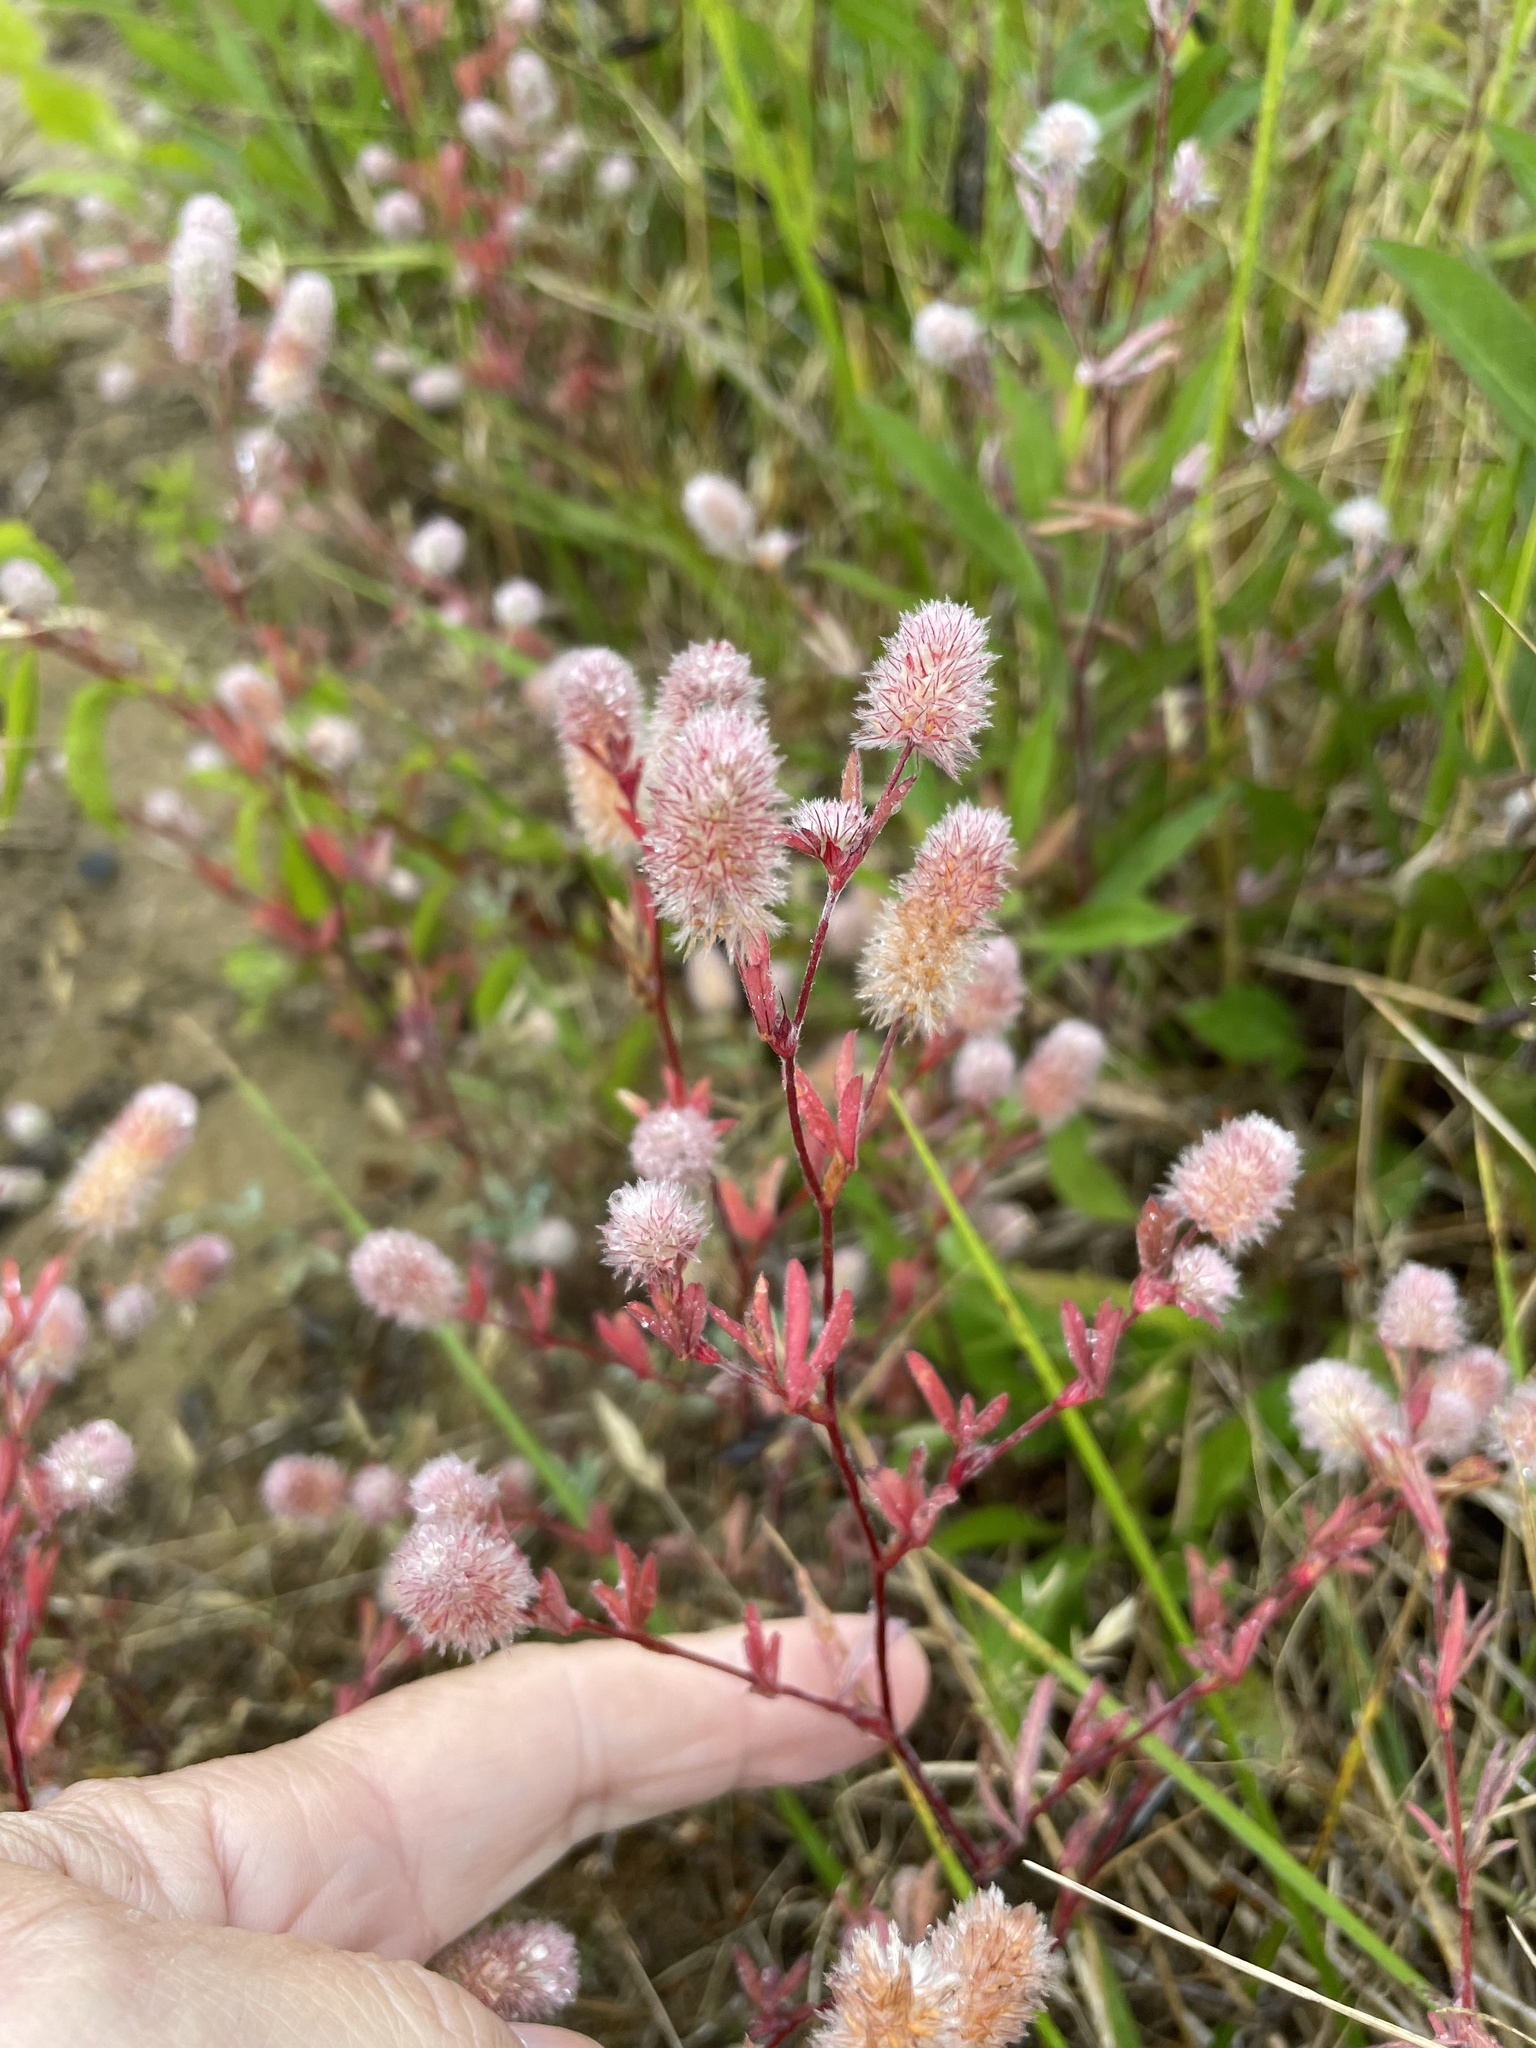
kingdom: Plantae
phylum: Tracheophyta
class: Magnoliopsida
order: Fabales
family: Fabaceae
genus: Trifolium
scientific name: Trifolium arvense
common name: Hare's-foot clover
